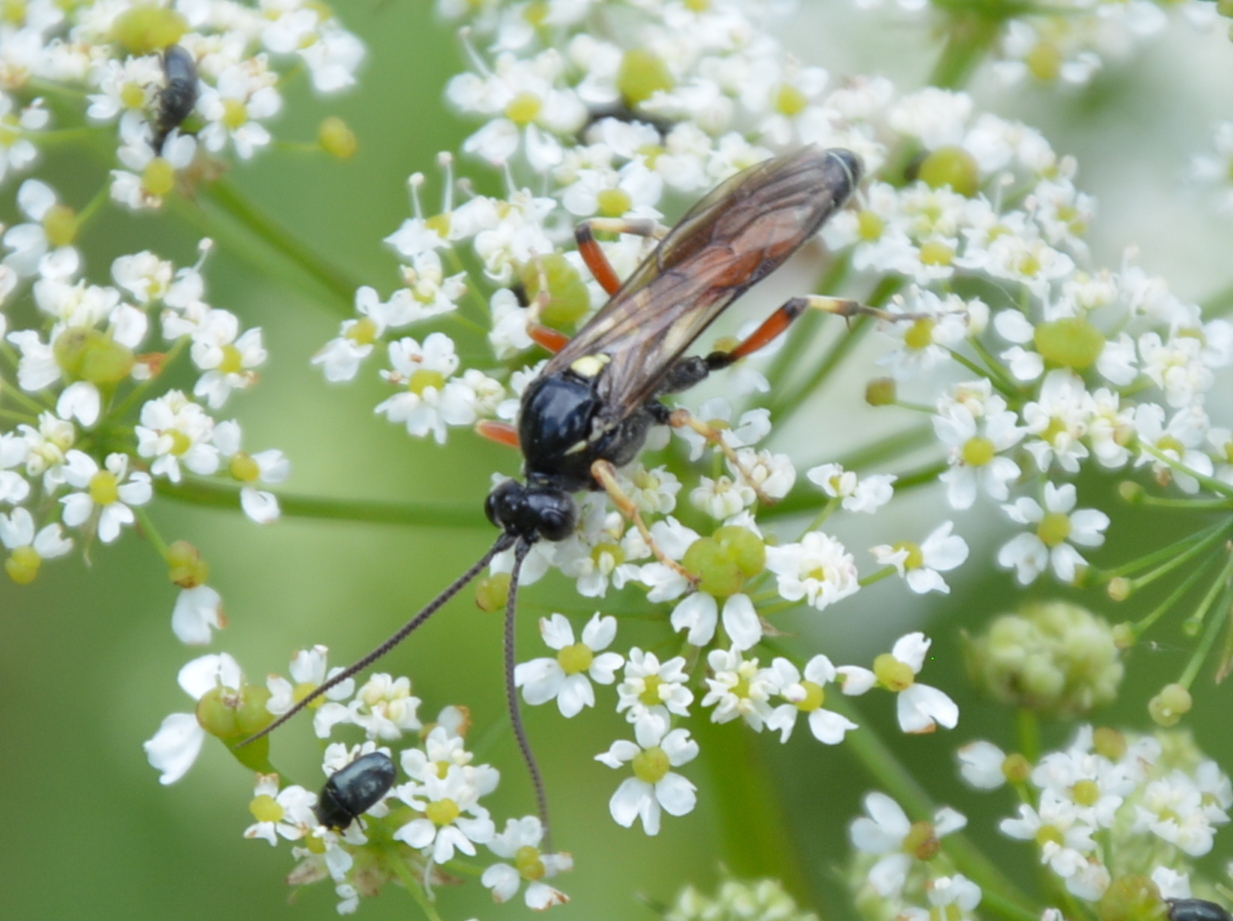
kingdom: Animalia
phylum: Arthropoda
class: Insecta
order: Hymenoptera
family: Ichneumonidae
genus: Ctenichneumon
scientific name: Ctenichneumon panzeri
